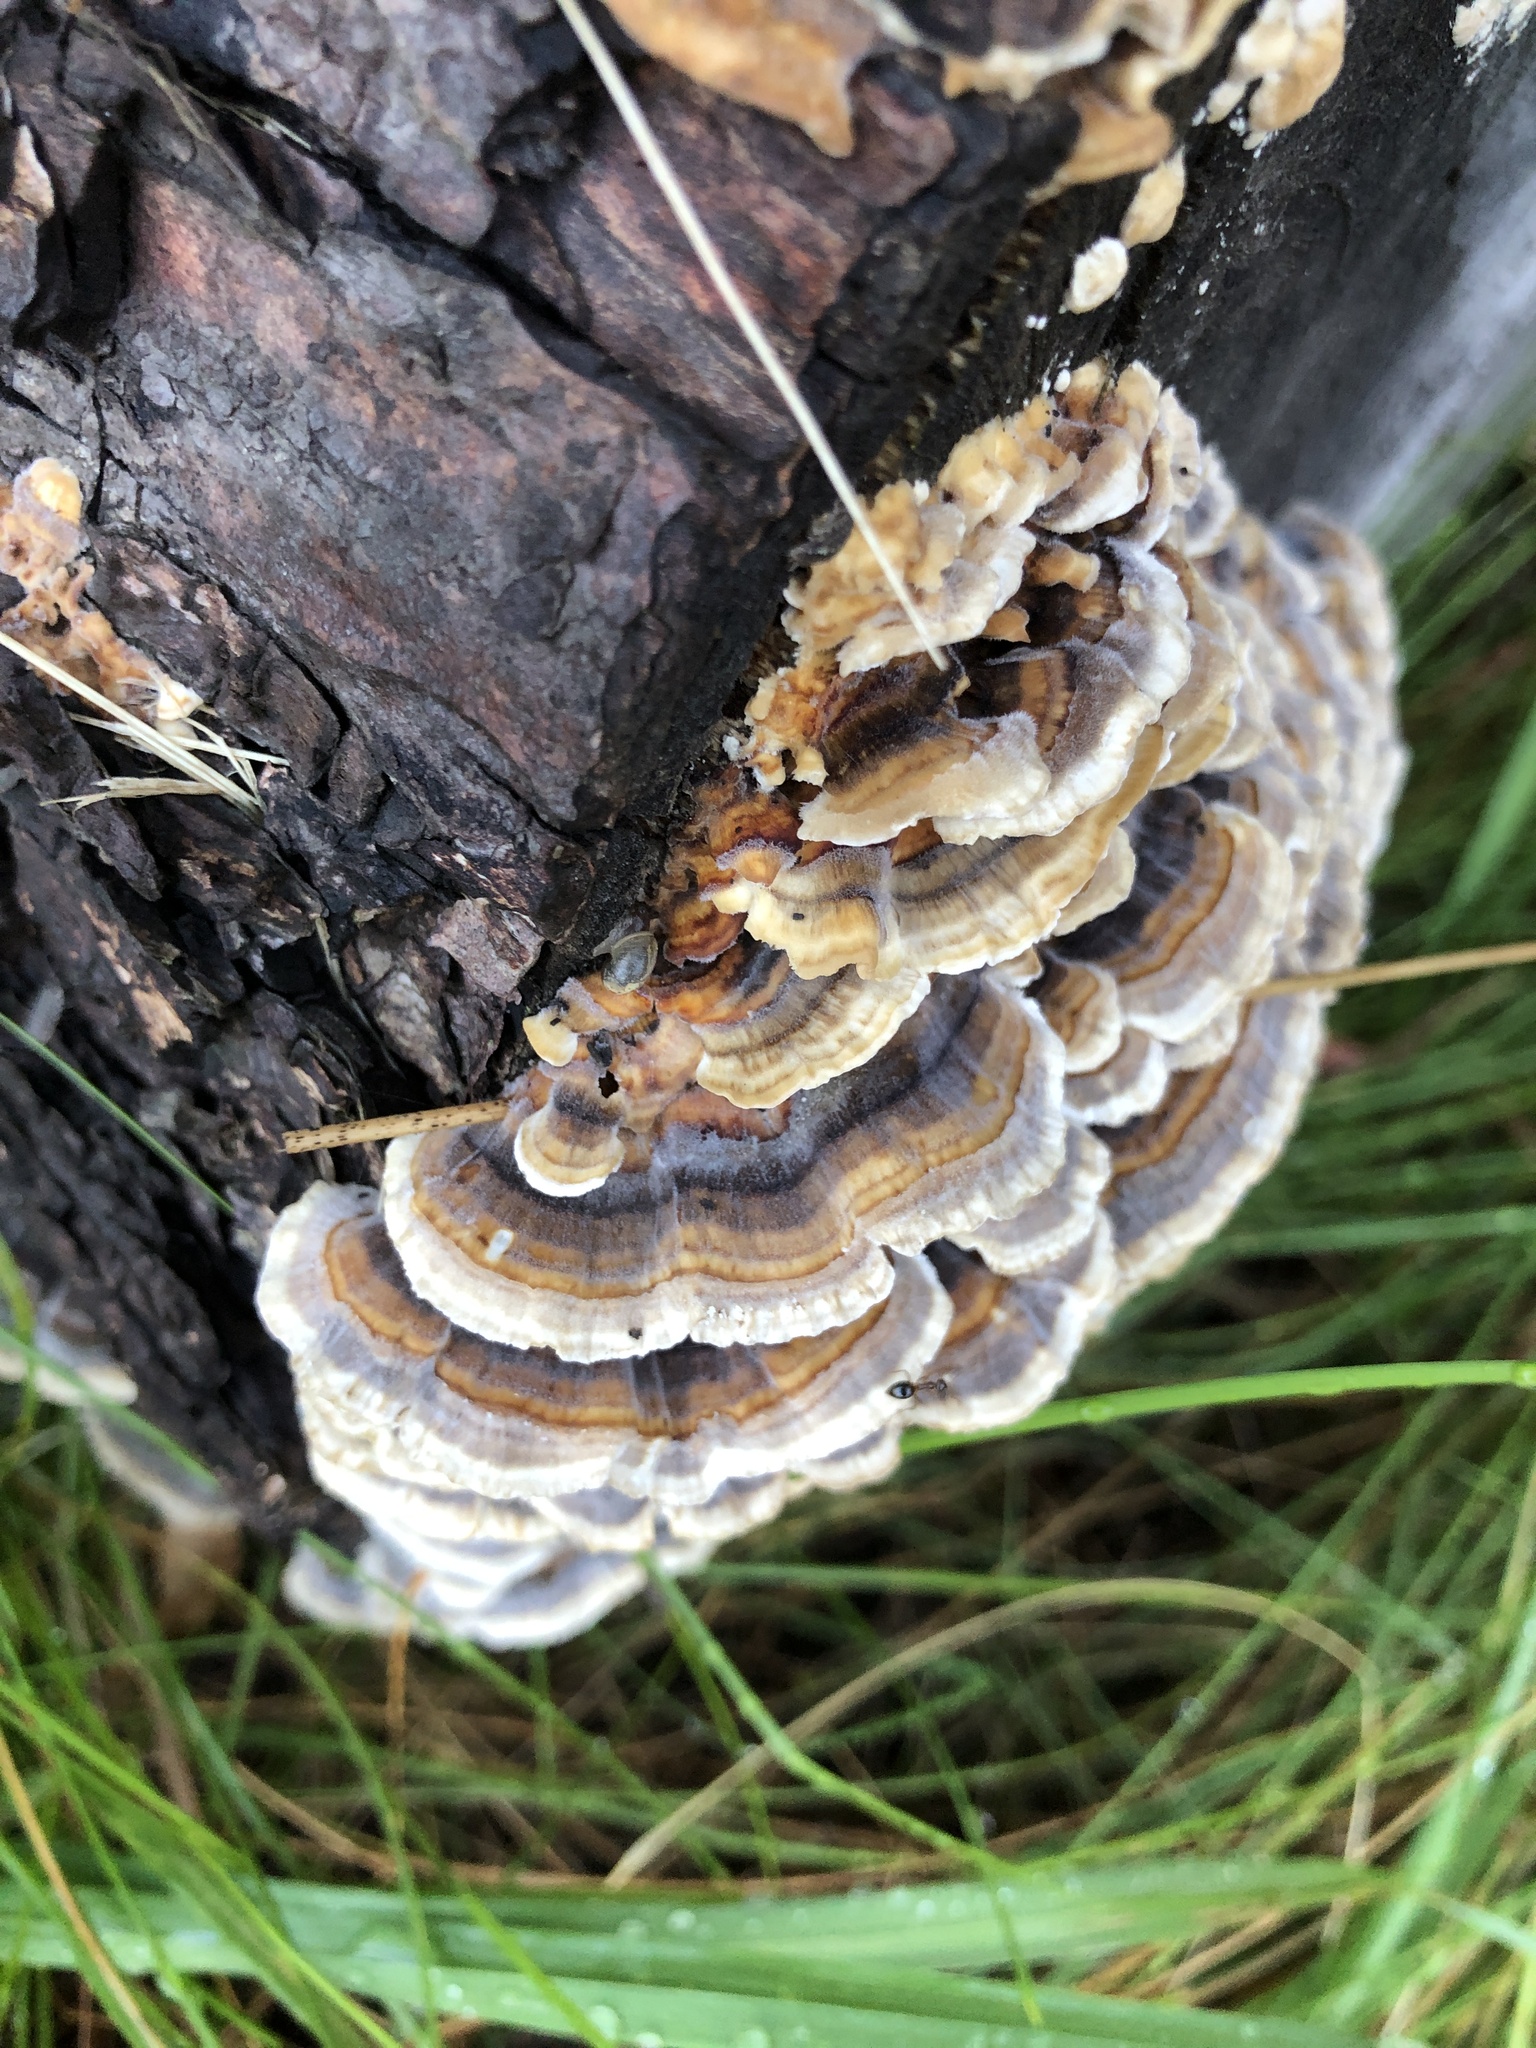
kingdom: Fungi
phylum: Basidiomycota
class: Agaricomycetes
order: Polyporales
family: Polyporaceae
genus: Trametes
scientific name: Trametes versicolor
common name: Turkeytail
